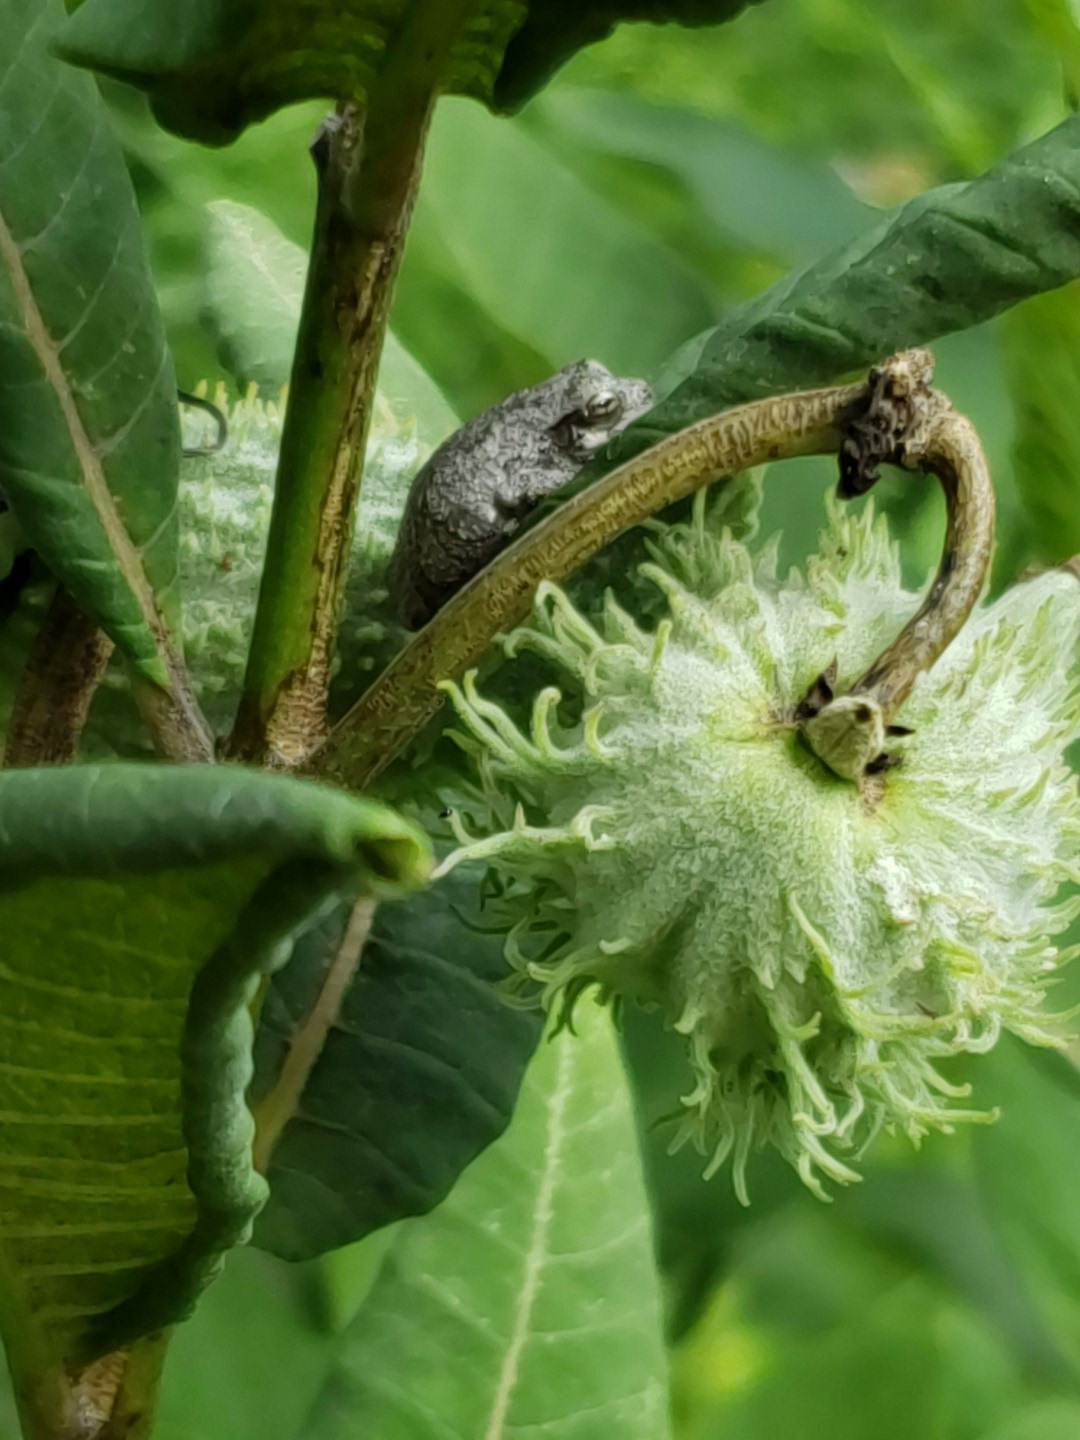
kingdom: Animalia
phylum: Chordata
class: Amphibia
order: Anura
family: Hylidae
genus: Dryophytes
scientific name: Dryophytes chrysoscelis
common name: Cope's gray treefrog
